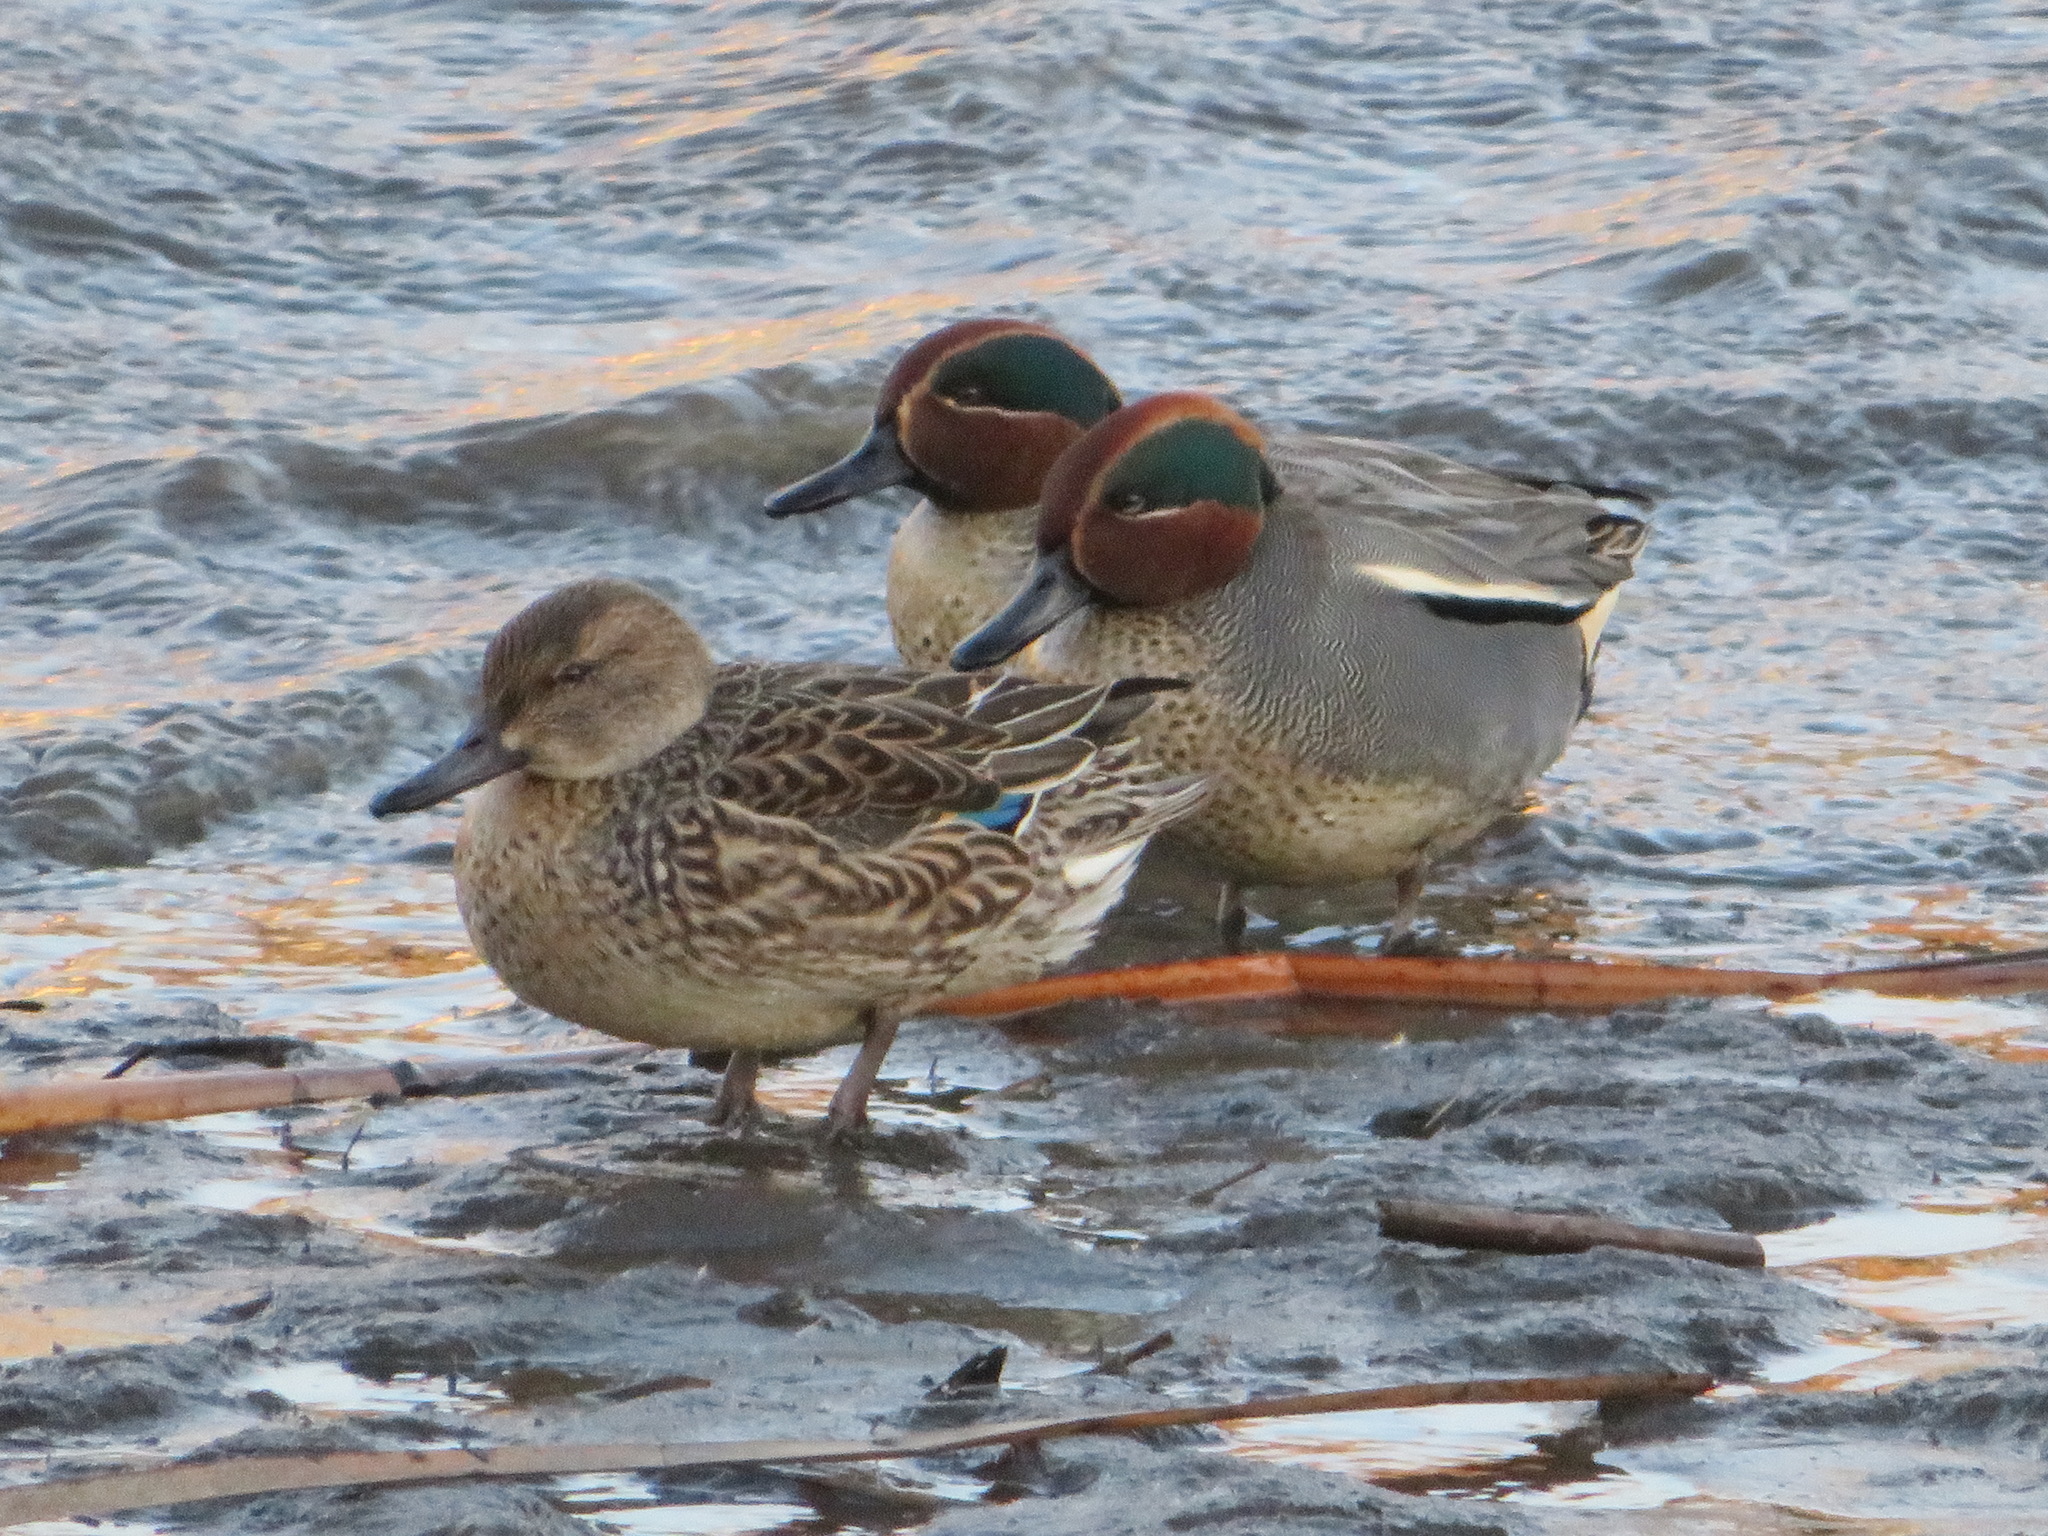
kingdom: Animalia
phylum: Chordata
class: Aves
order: Anseriformes
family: Anatidae
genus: Anas
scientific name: Anas crecca
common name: Eurasian teal
